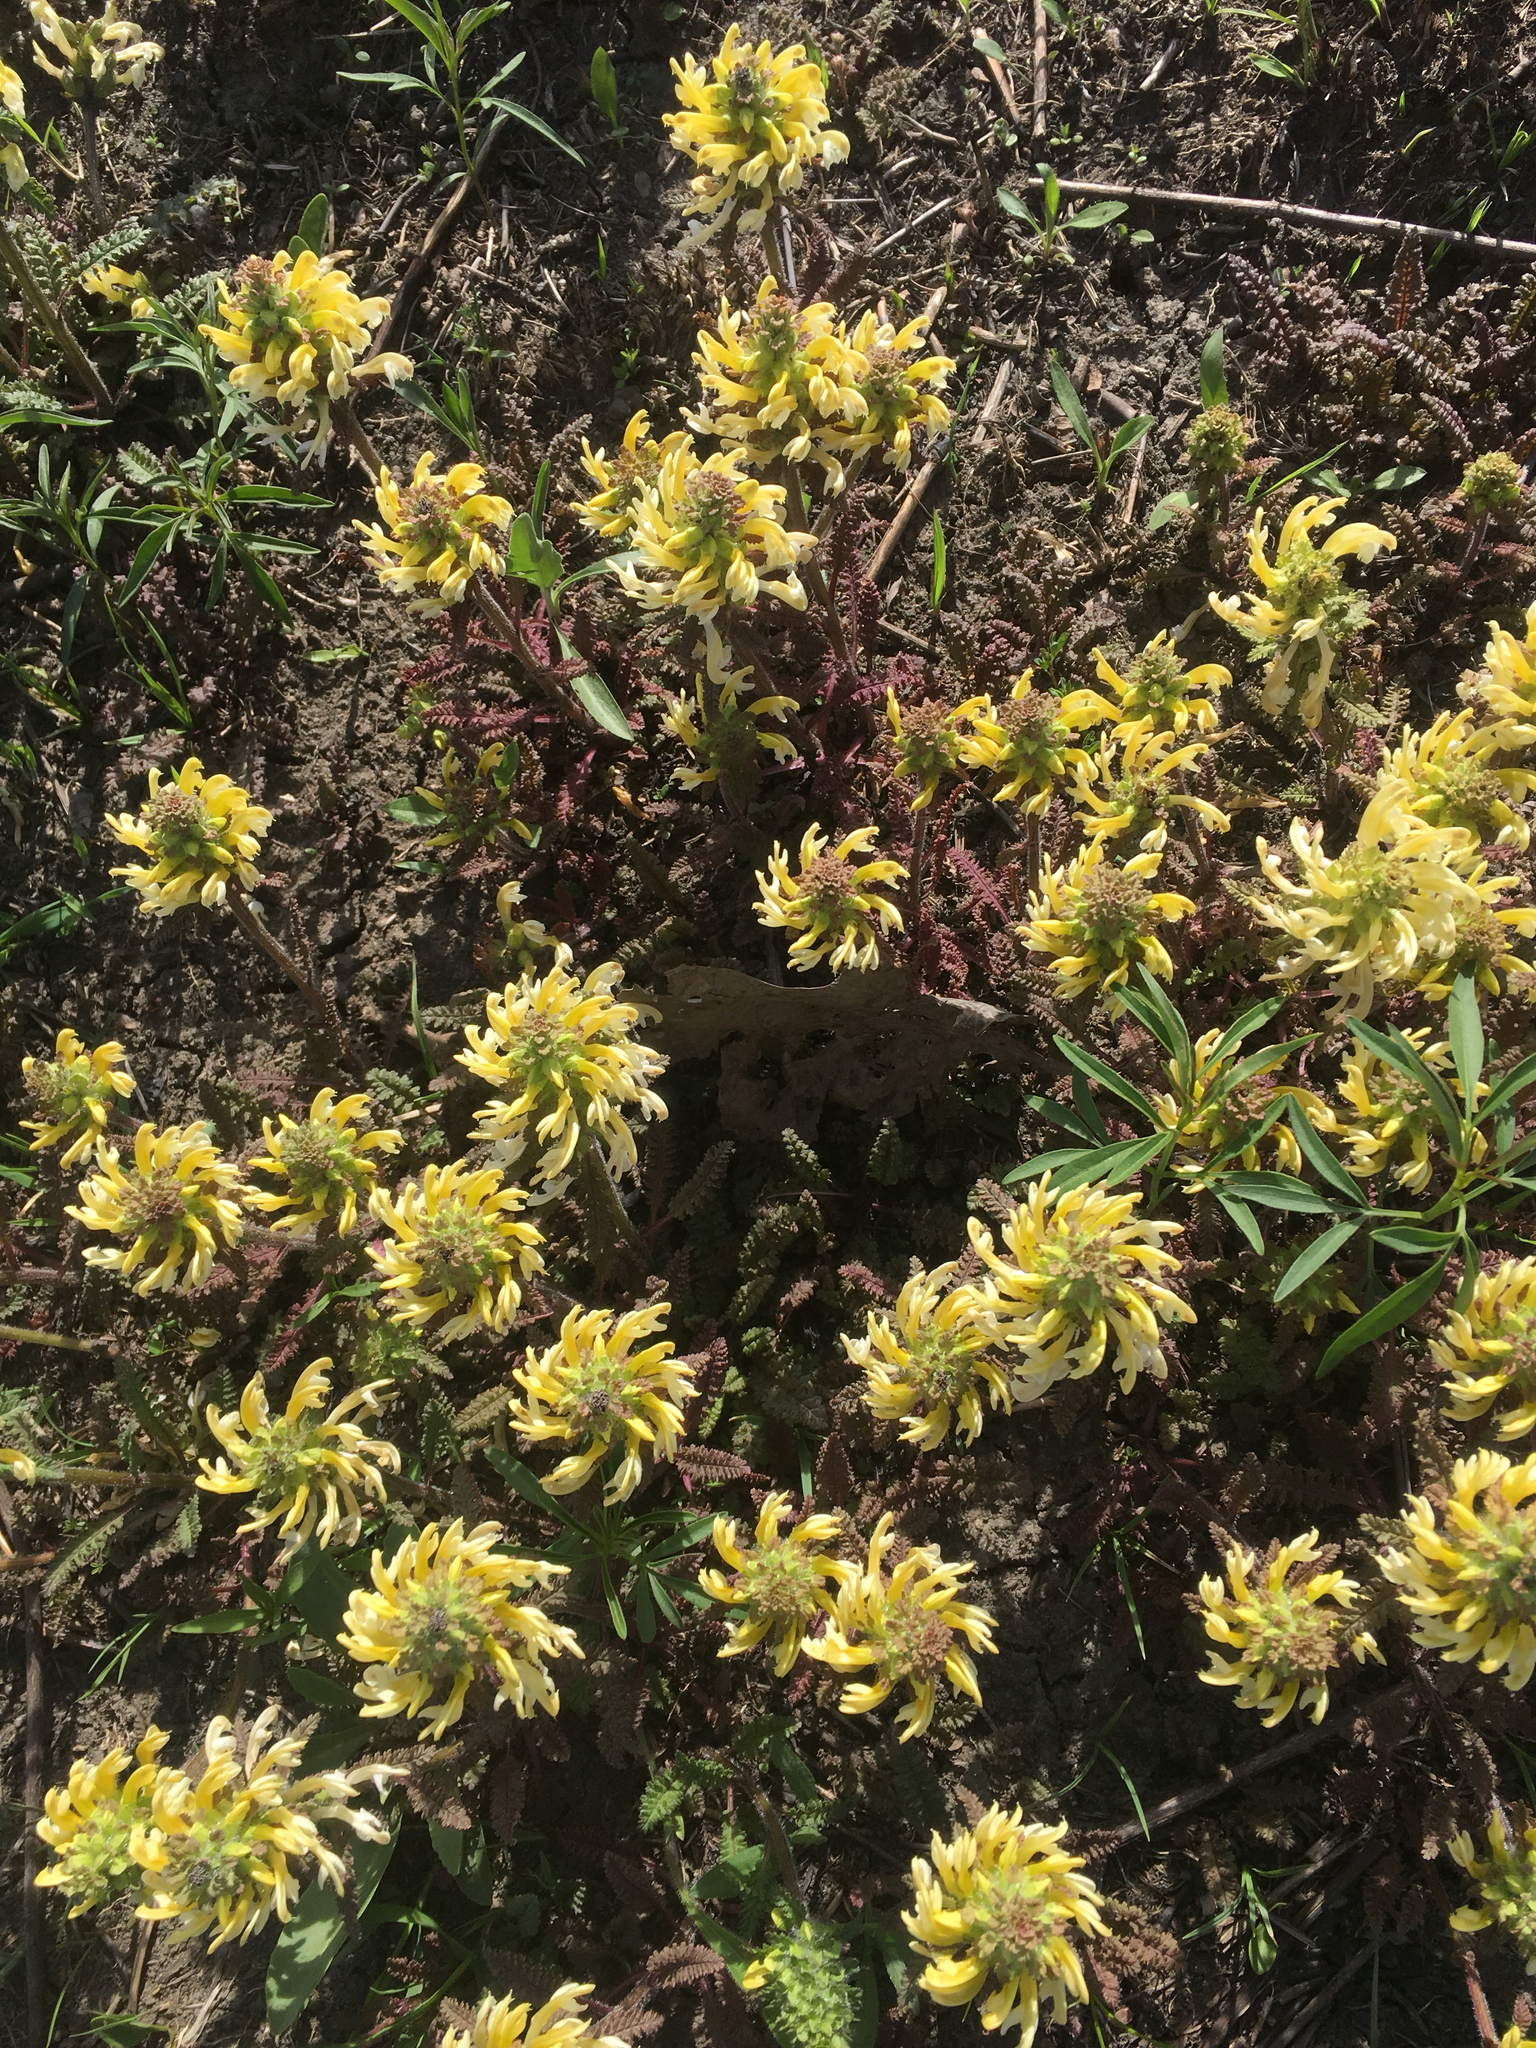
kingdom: Plantae
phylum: Tracheophyta
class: Magnoliopsida
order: Lamiales
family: Orobanchaceae
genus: Pedicularis
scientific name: Pedicularis canadensis
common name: Early lousewort
